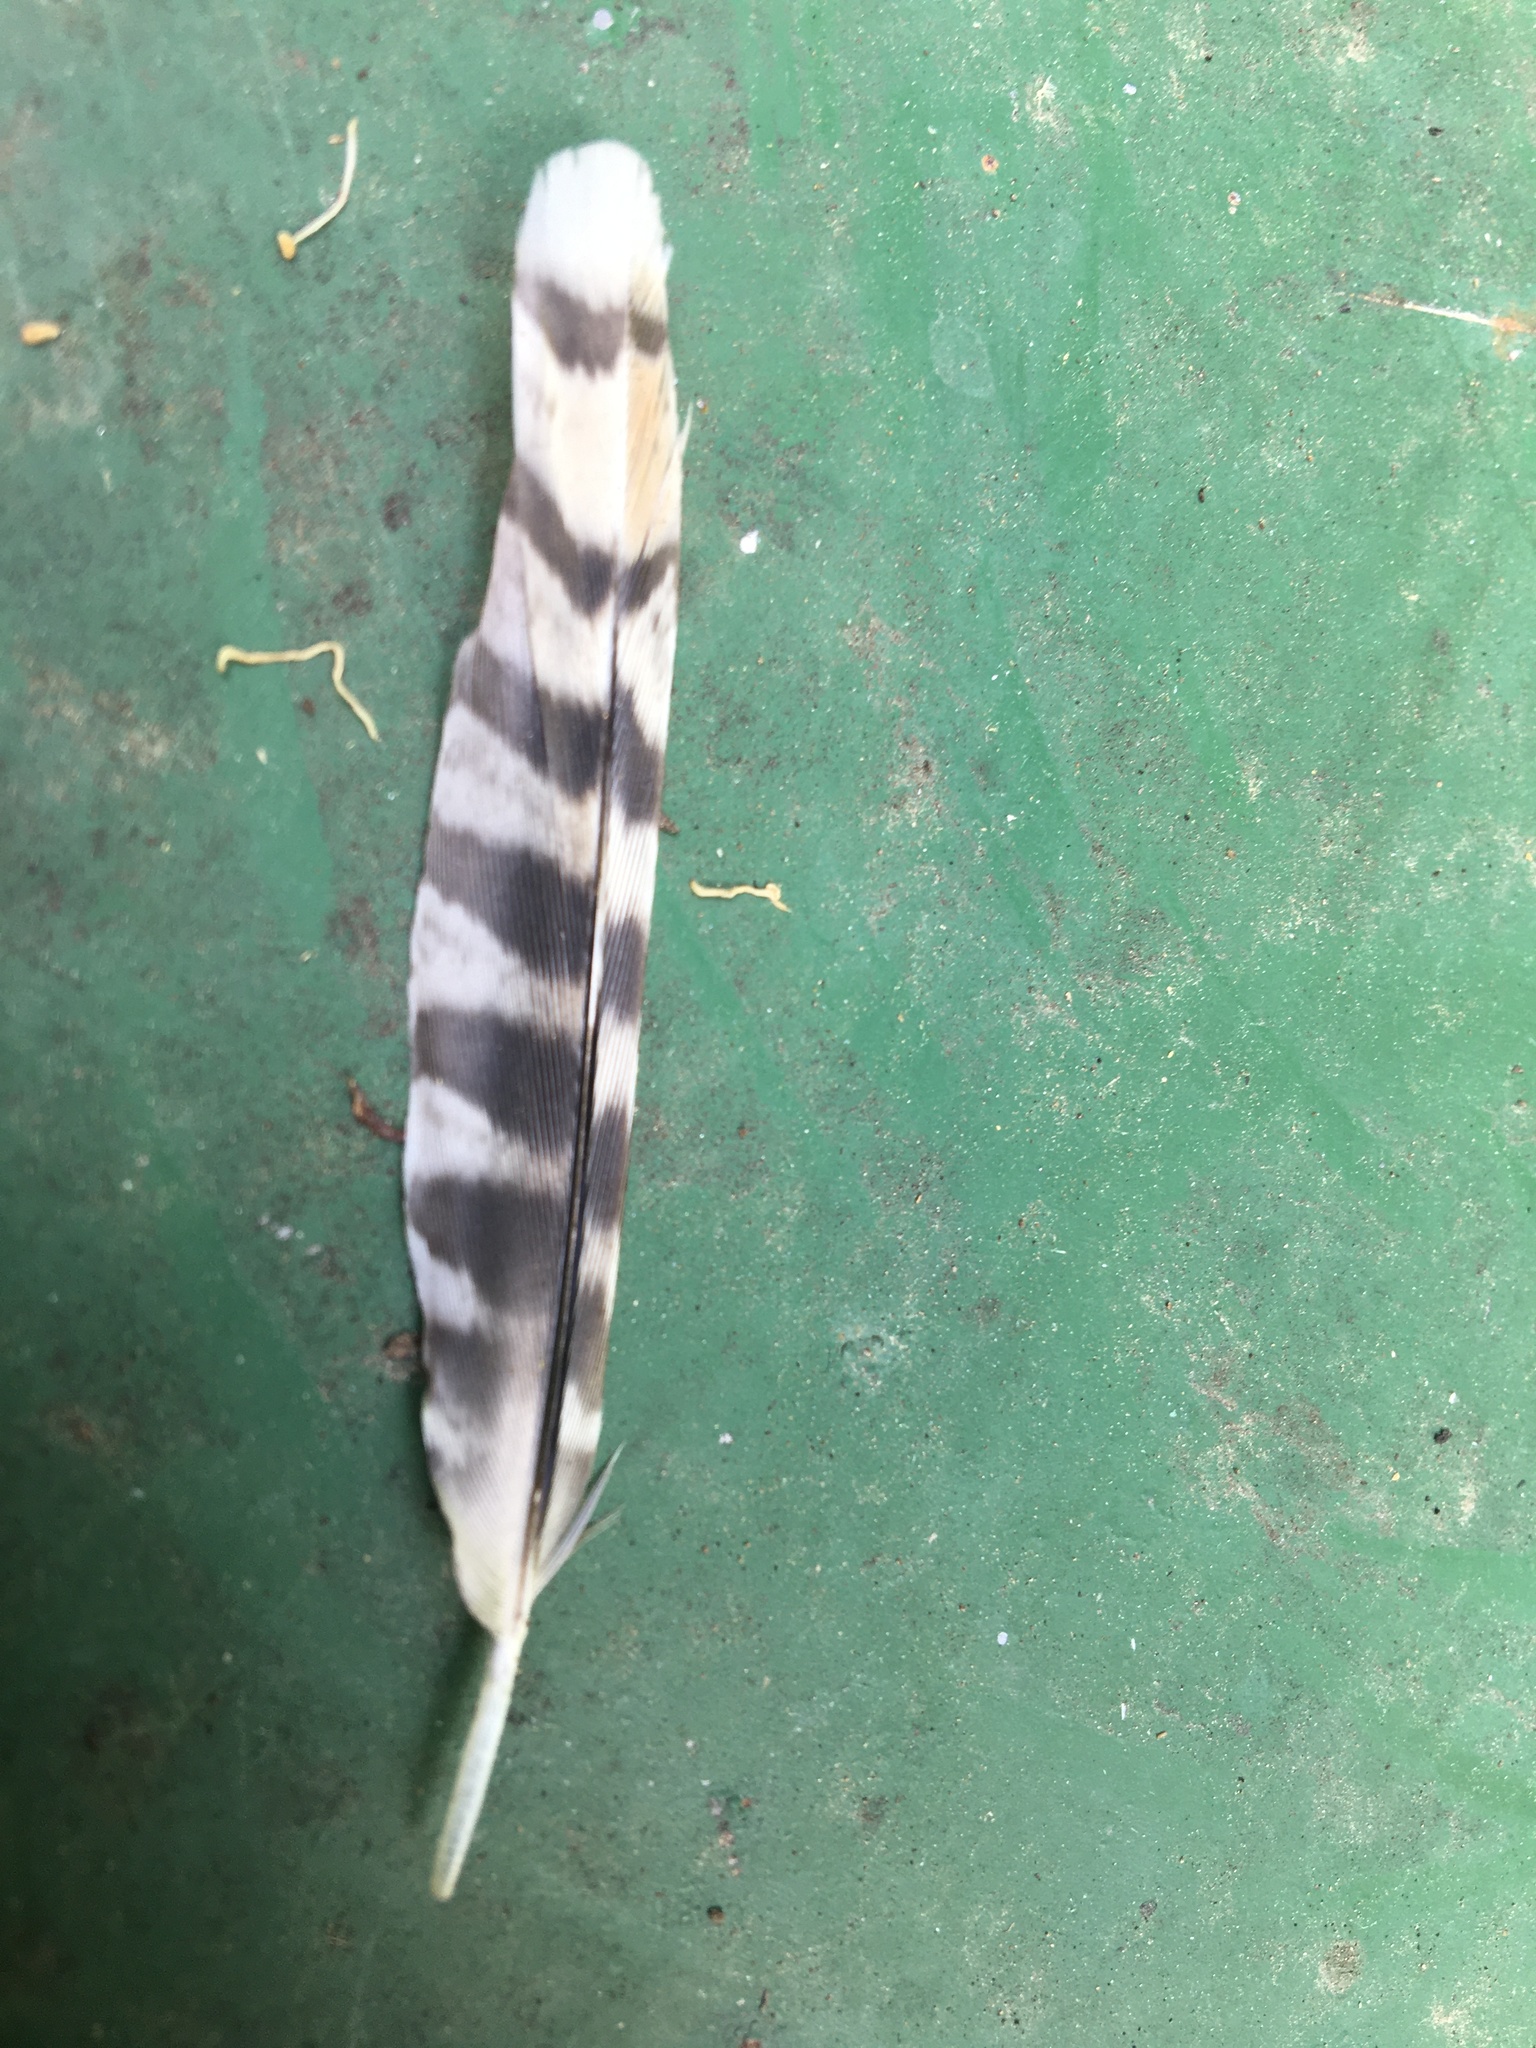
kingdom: Animalia
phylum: Chordata
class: Aves
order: Charadriiformes
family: Scolopacidae
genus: Gallinago
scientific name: Gallinago delicata
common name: Wilson's snipe
